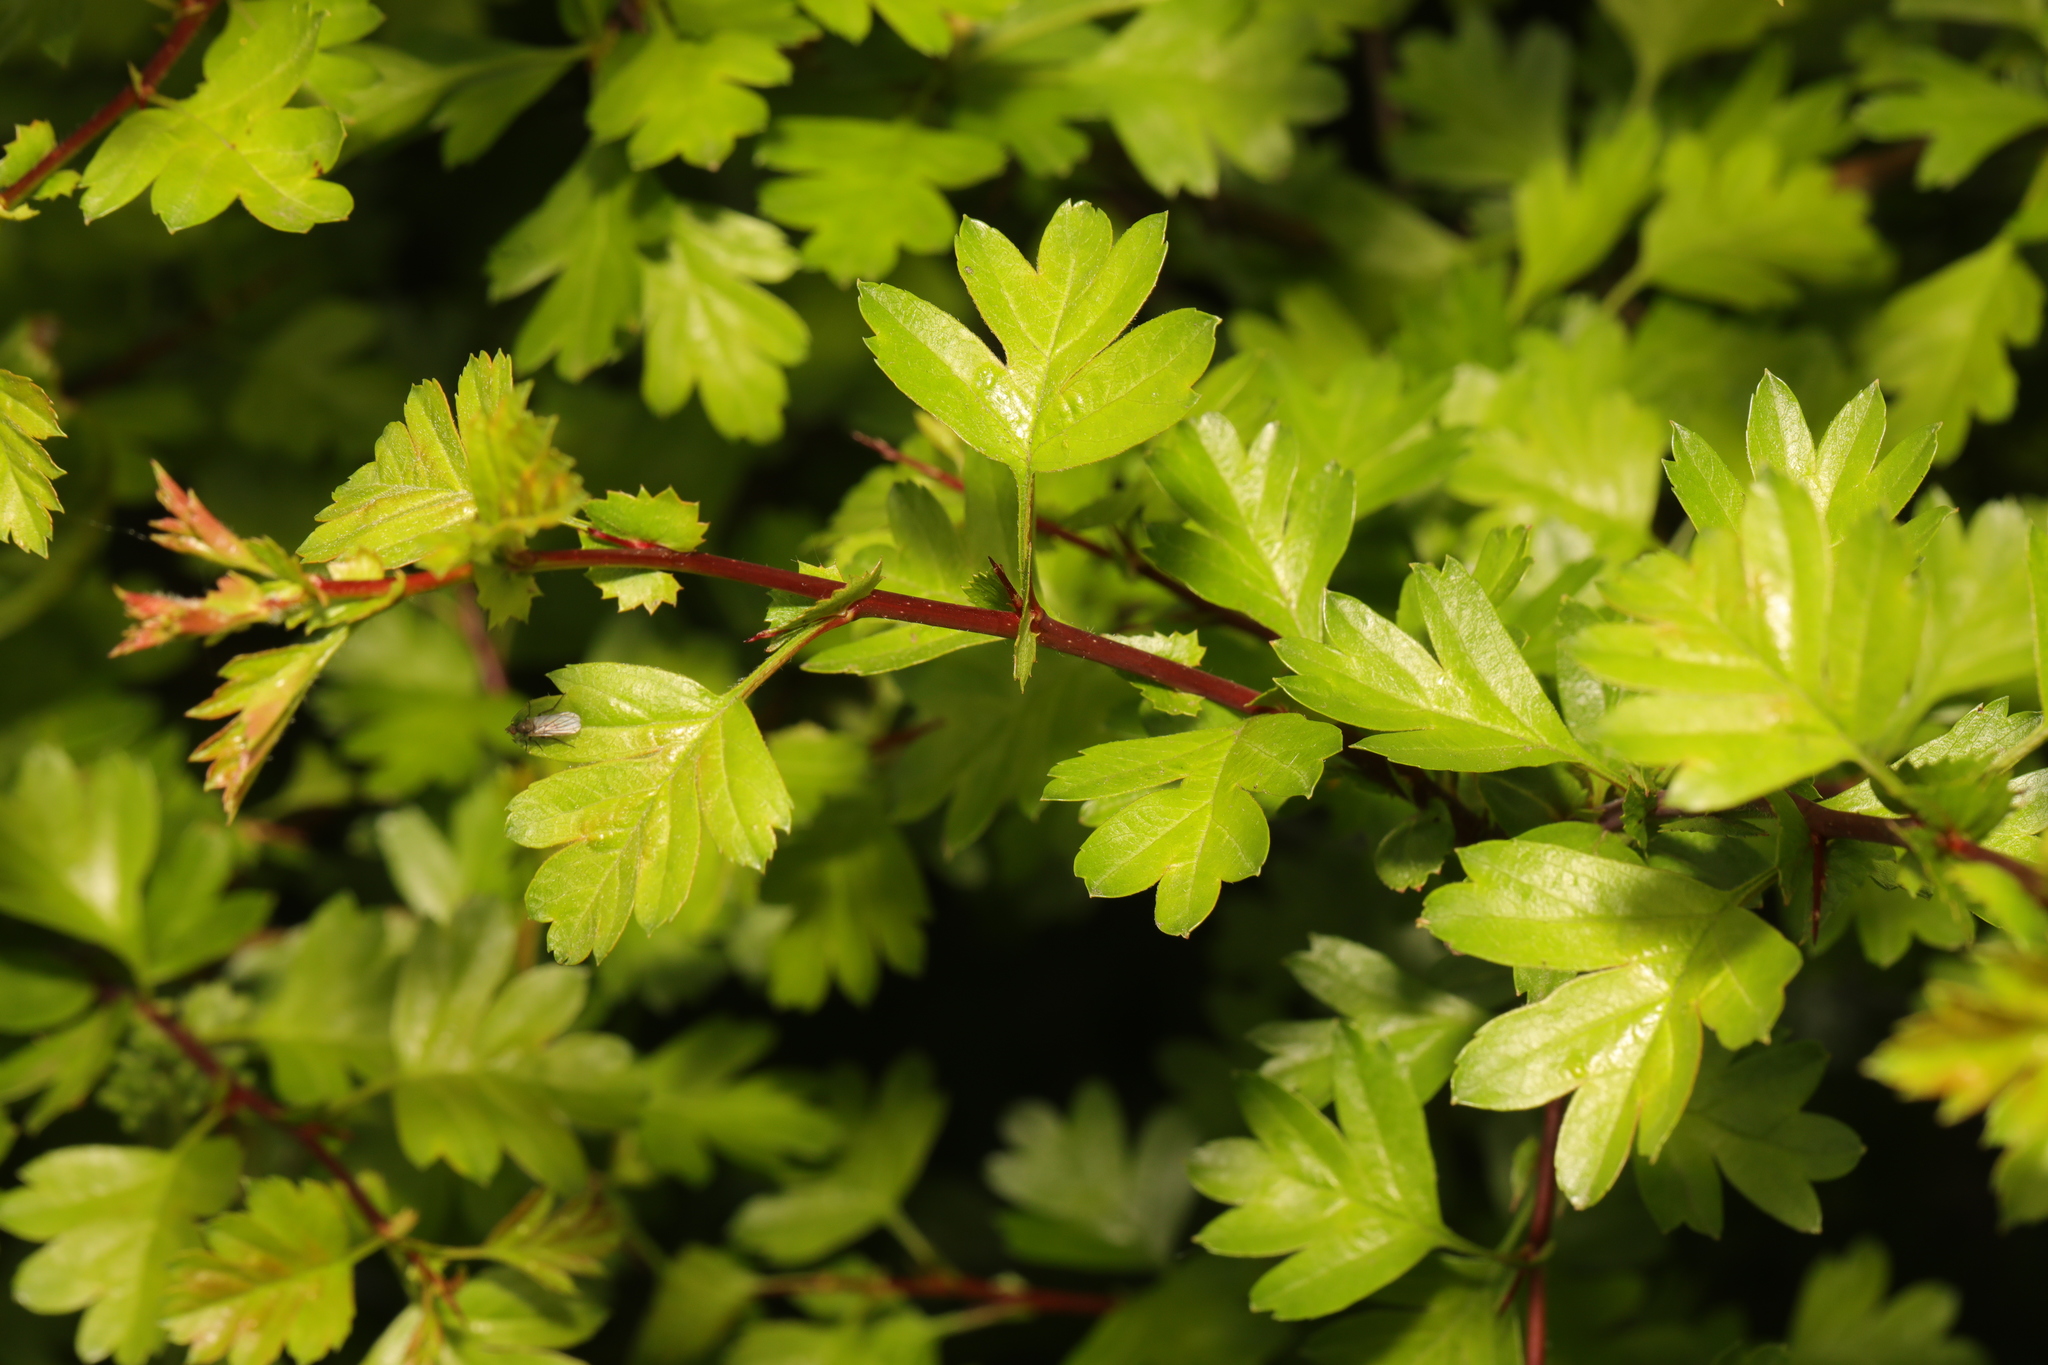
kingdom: Plantae
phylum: Tracheophyta
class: Magnoliopsida
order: Rosales
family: Rosaceae
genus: Crataegus
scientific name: Crataegus monogyna
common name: Hawthorn
